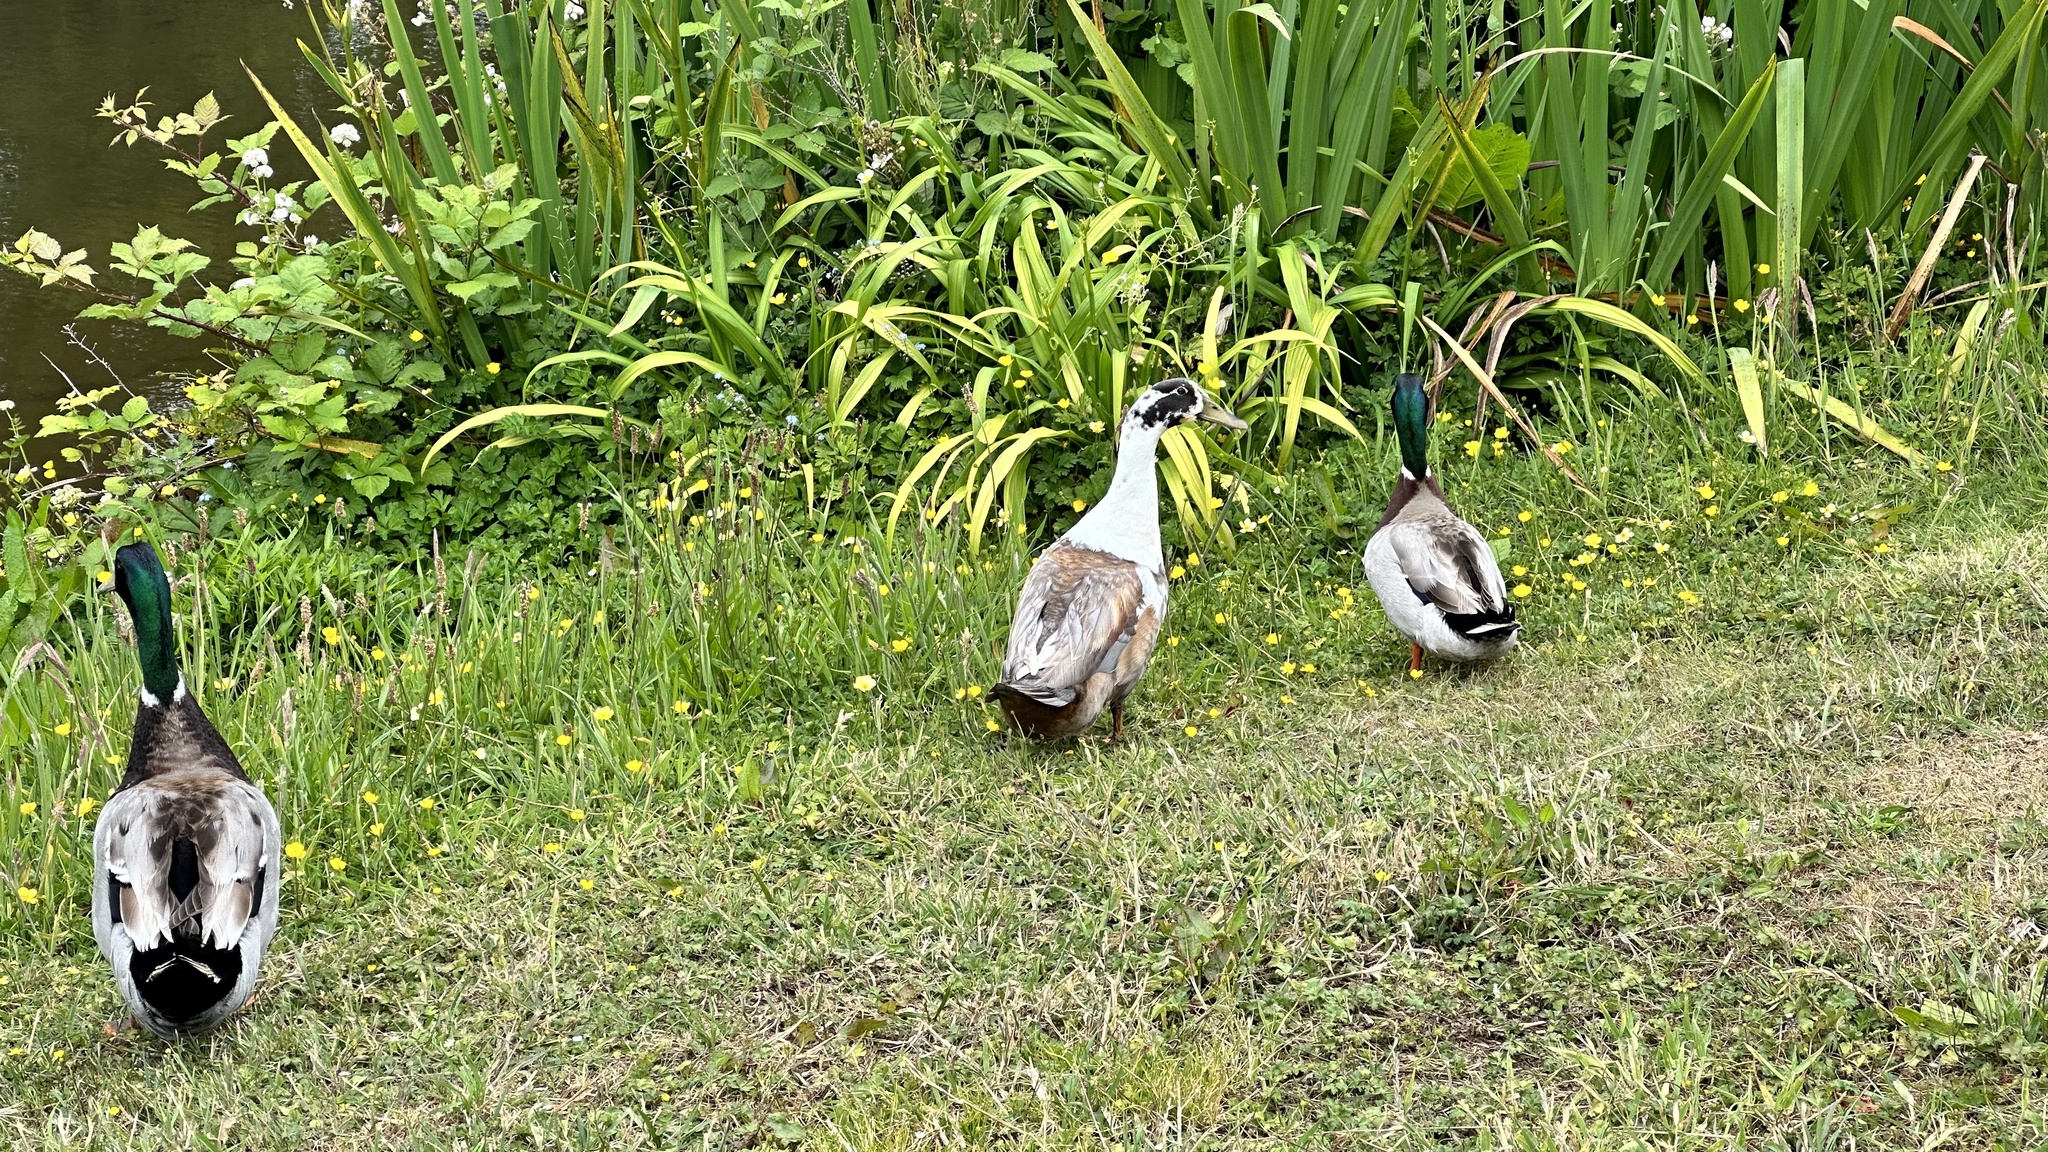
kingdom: Animalia
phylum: Chordata
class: Aves
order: Anseriformes
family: Anatidae
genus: Anas
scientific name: Anas platyrhynchos
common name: Mallard
